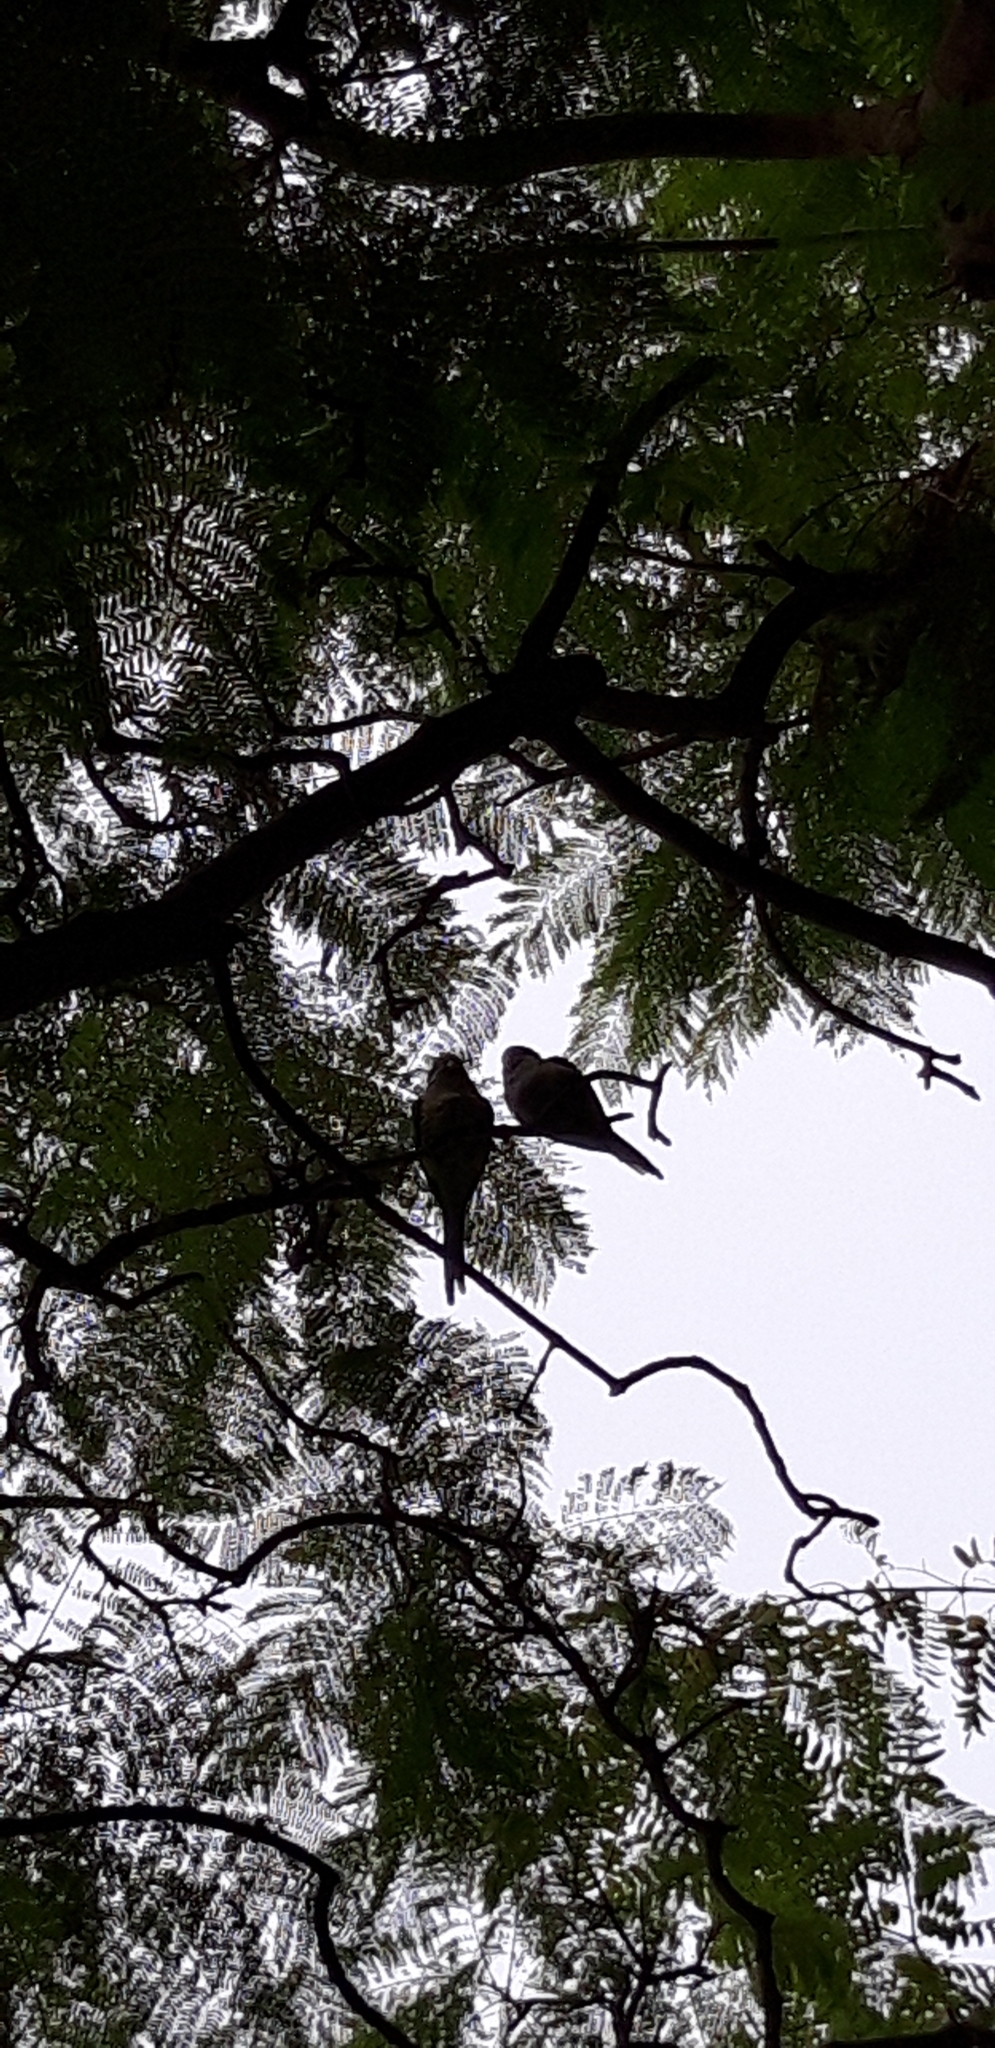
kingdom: Animalia
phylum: Chordata
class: Aves
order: Psittaciformes
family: Psittacidae
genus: Myiopsitta
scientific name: Myiopsitta monachus
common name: Monk parakeet
